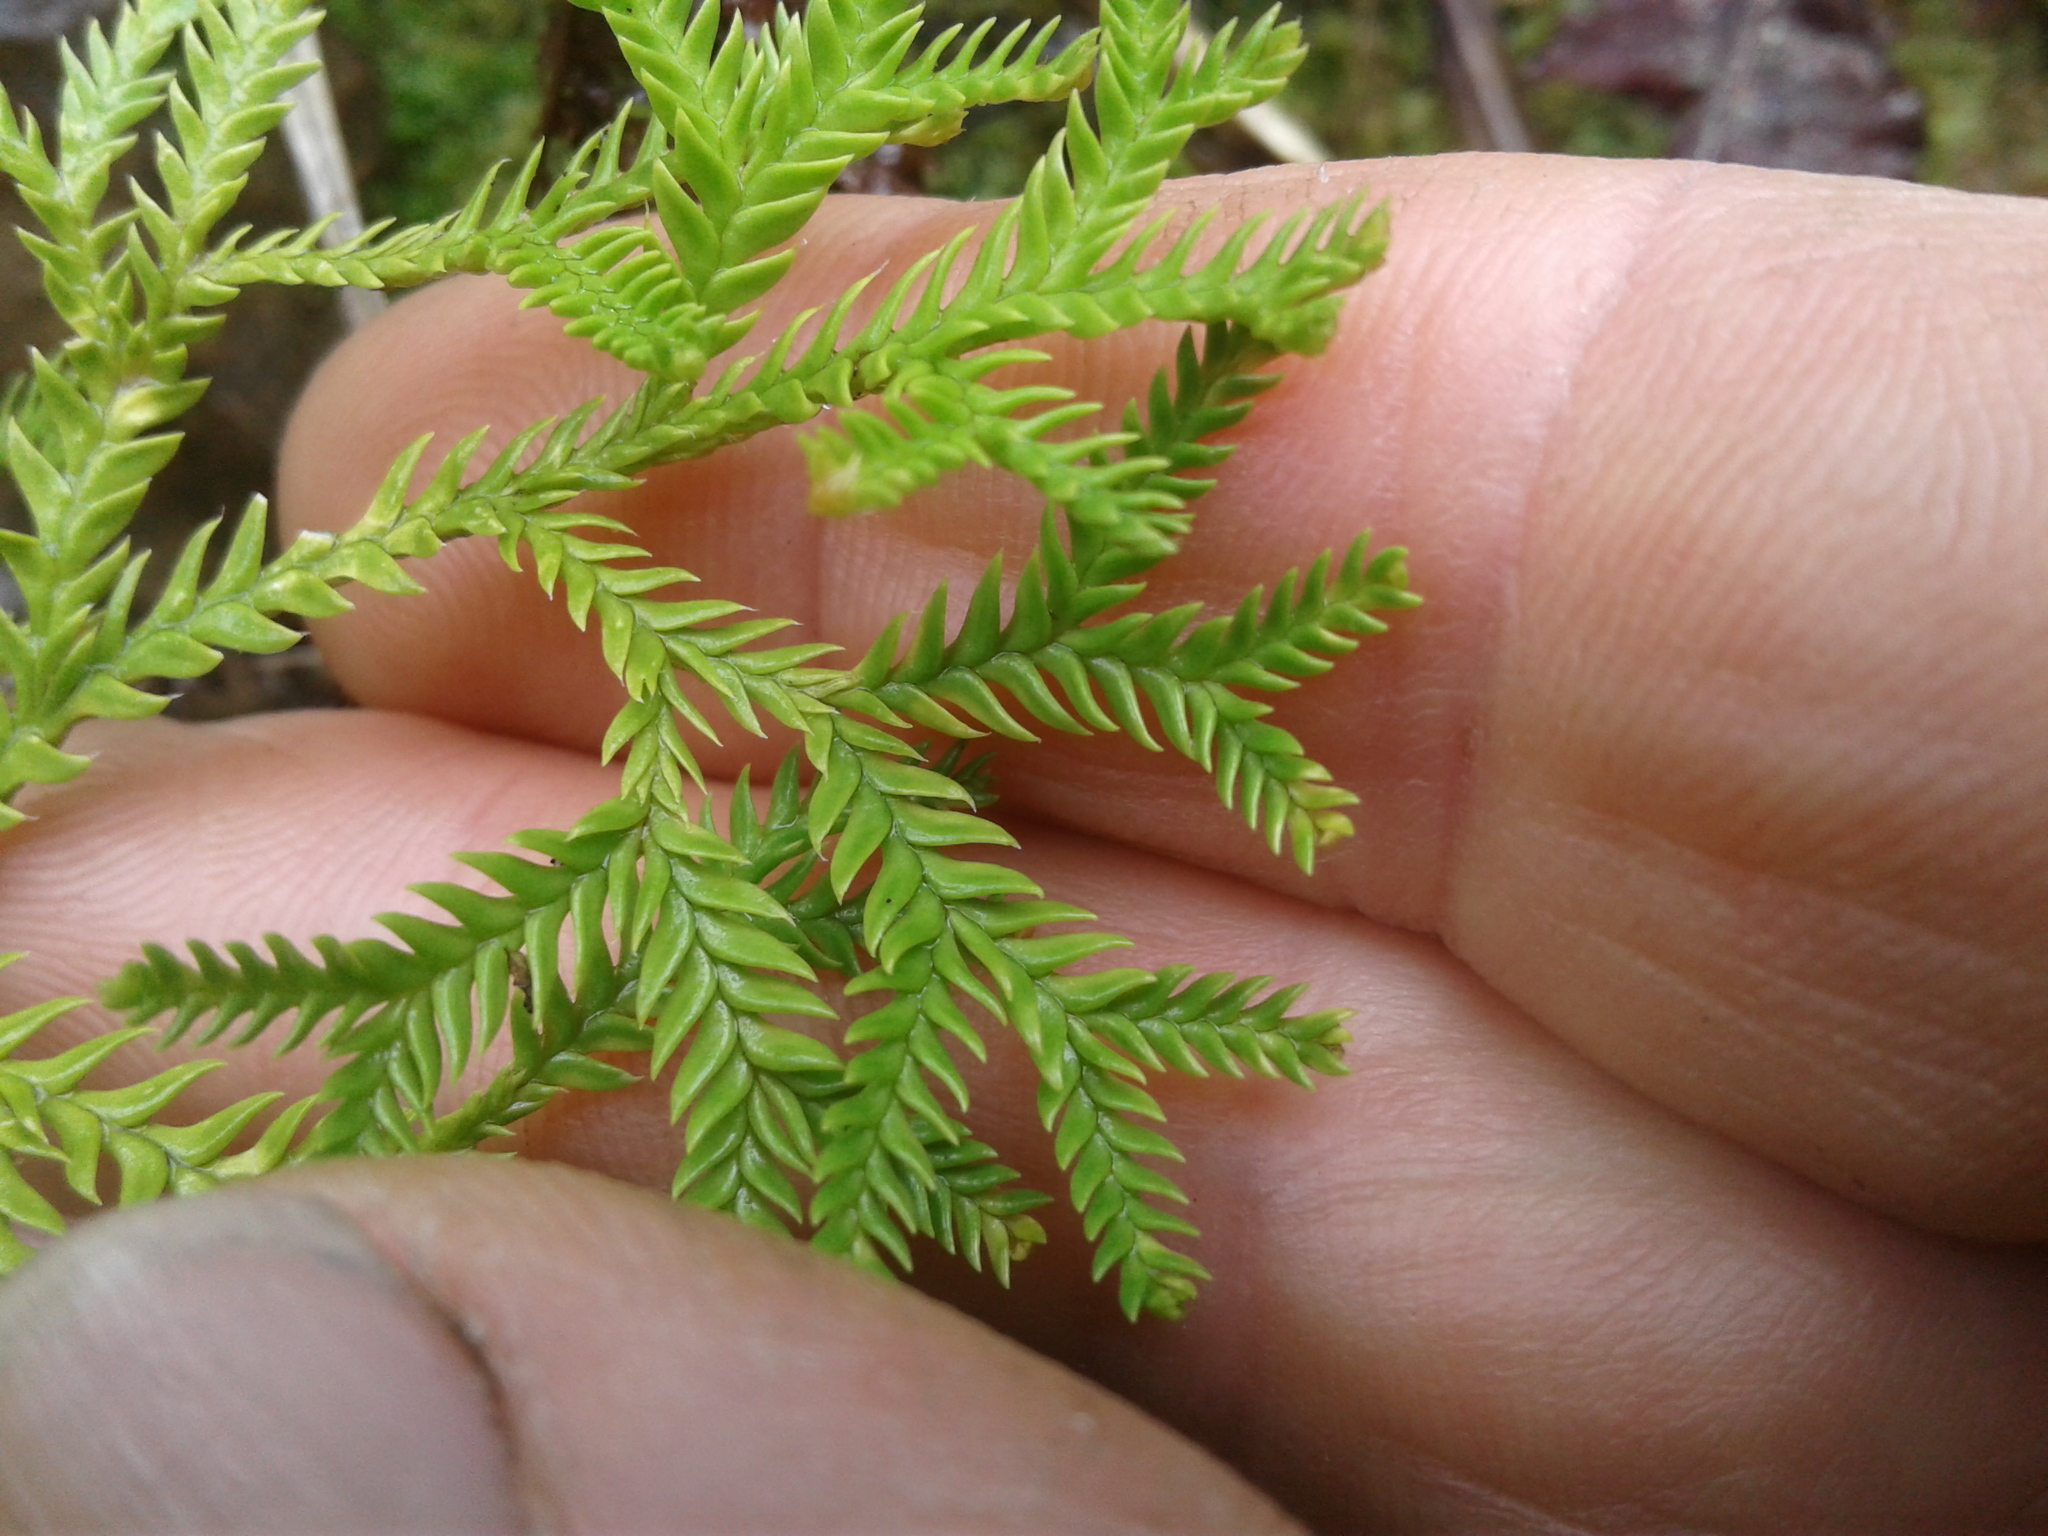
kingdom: Plantae
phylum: Tracheophyta
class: Lycopodiopsida
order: Lycopodiales
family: Lycopodiaceae
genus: Diphasium
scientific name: Diphasium scariosum
